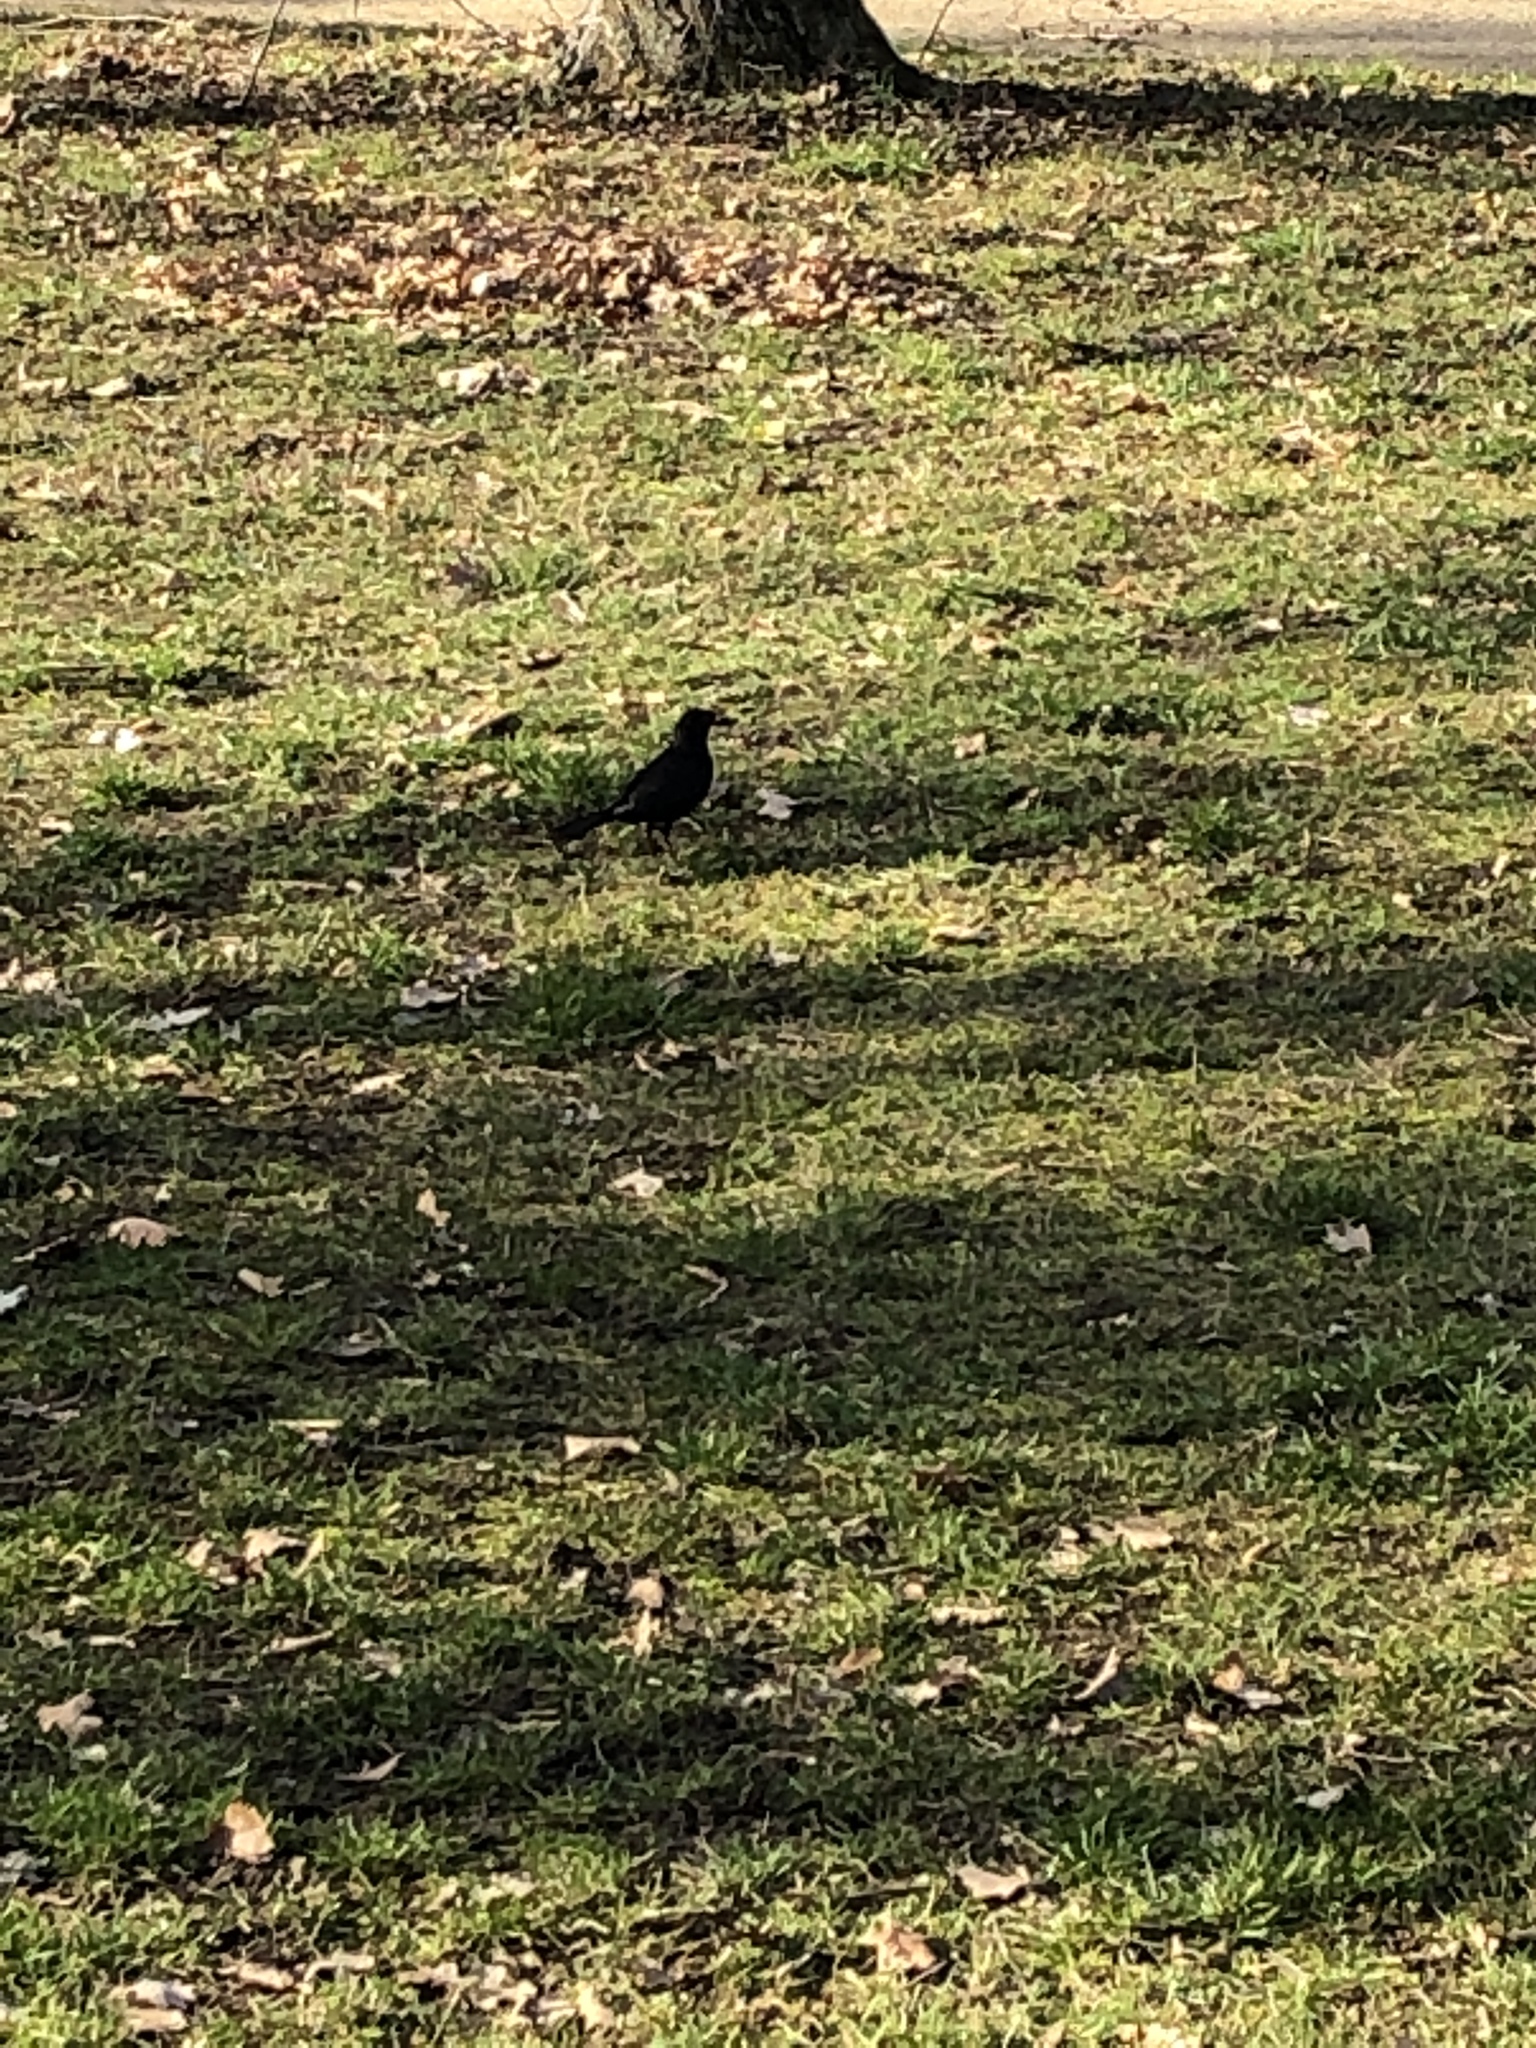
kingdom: Animalia
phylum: Chordata
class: Aves
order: Passeriformes
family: Turdidae
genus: Turdus
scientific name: Turdus merula
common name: Common blackbird
